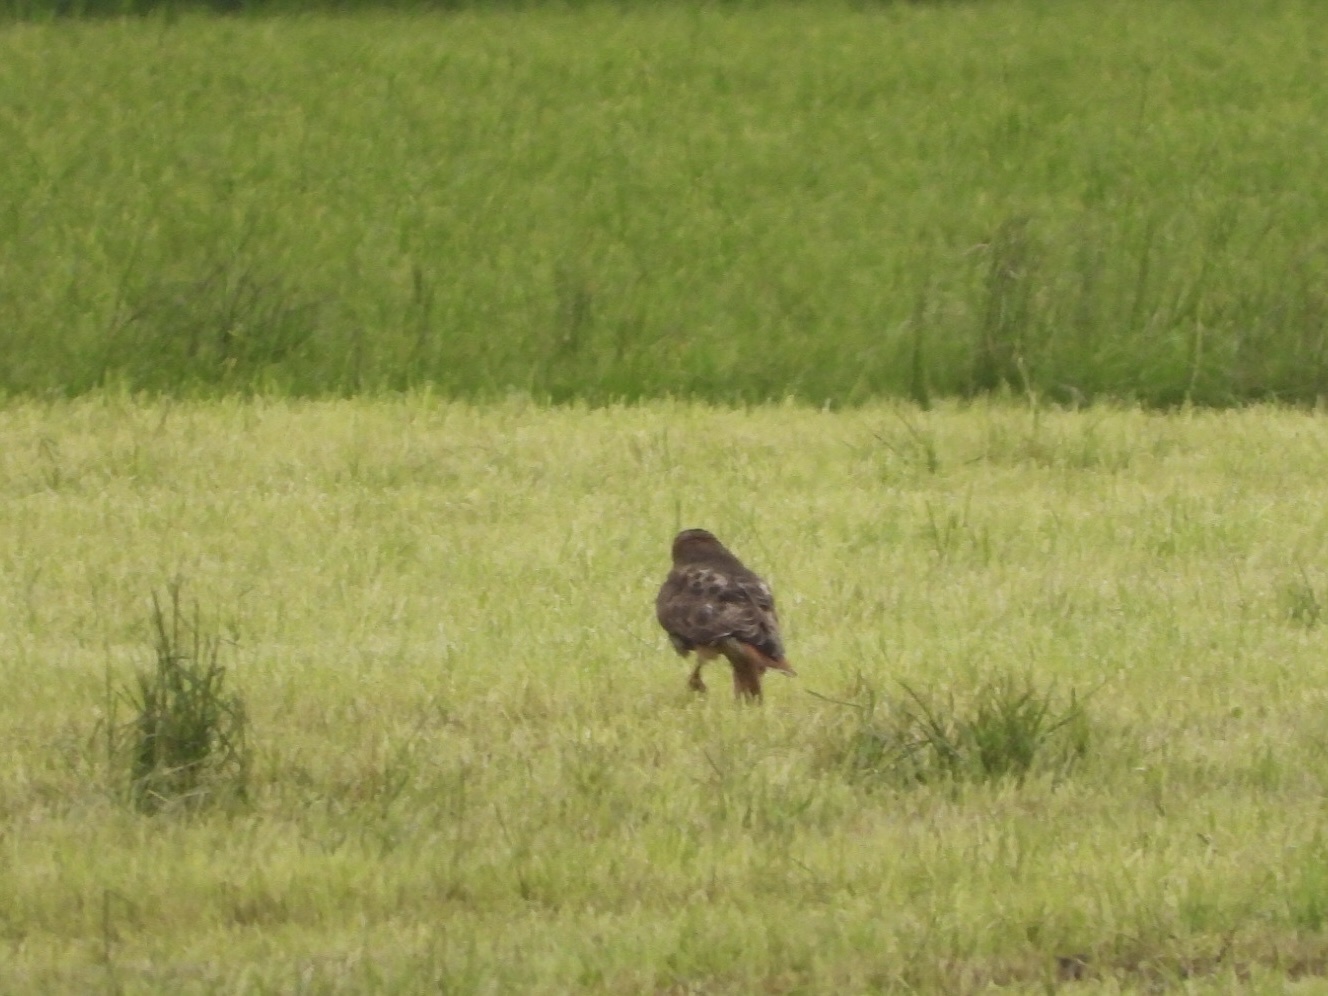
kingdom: Animalia
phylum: Chordata
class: Aves
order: Accipitriformes
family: Accipitridae
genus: Buteo
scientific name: Buteo jamaicensis
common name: Red-tailed hawk
